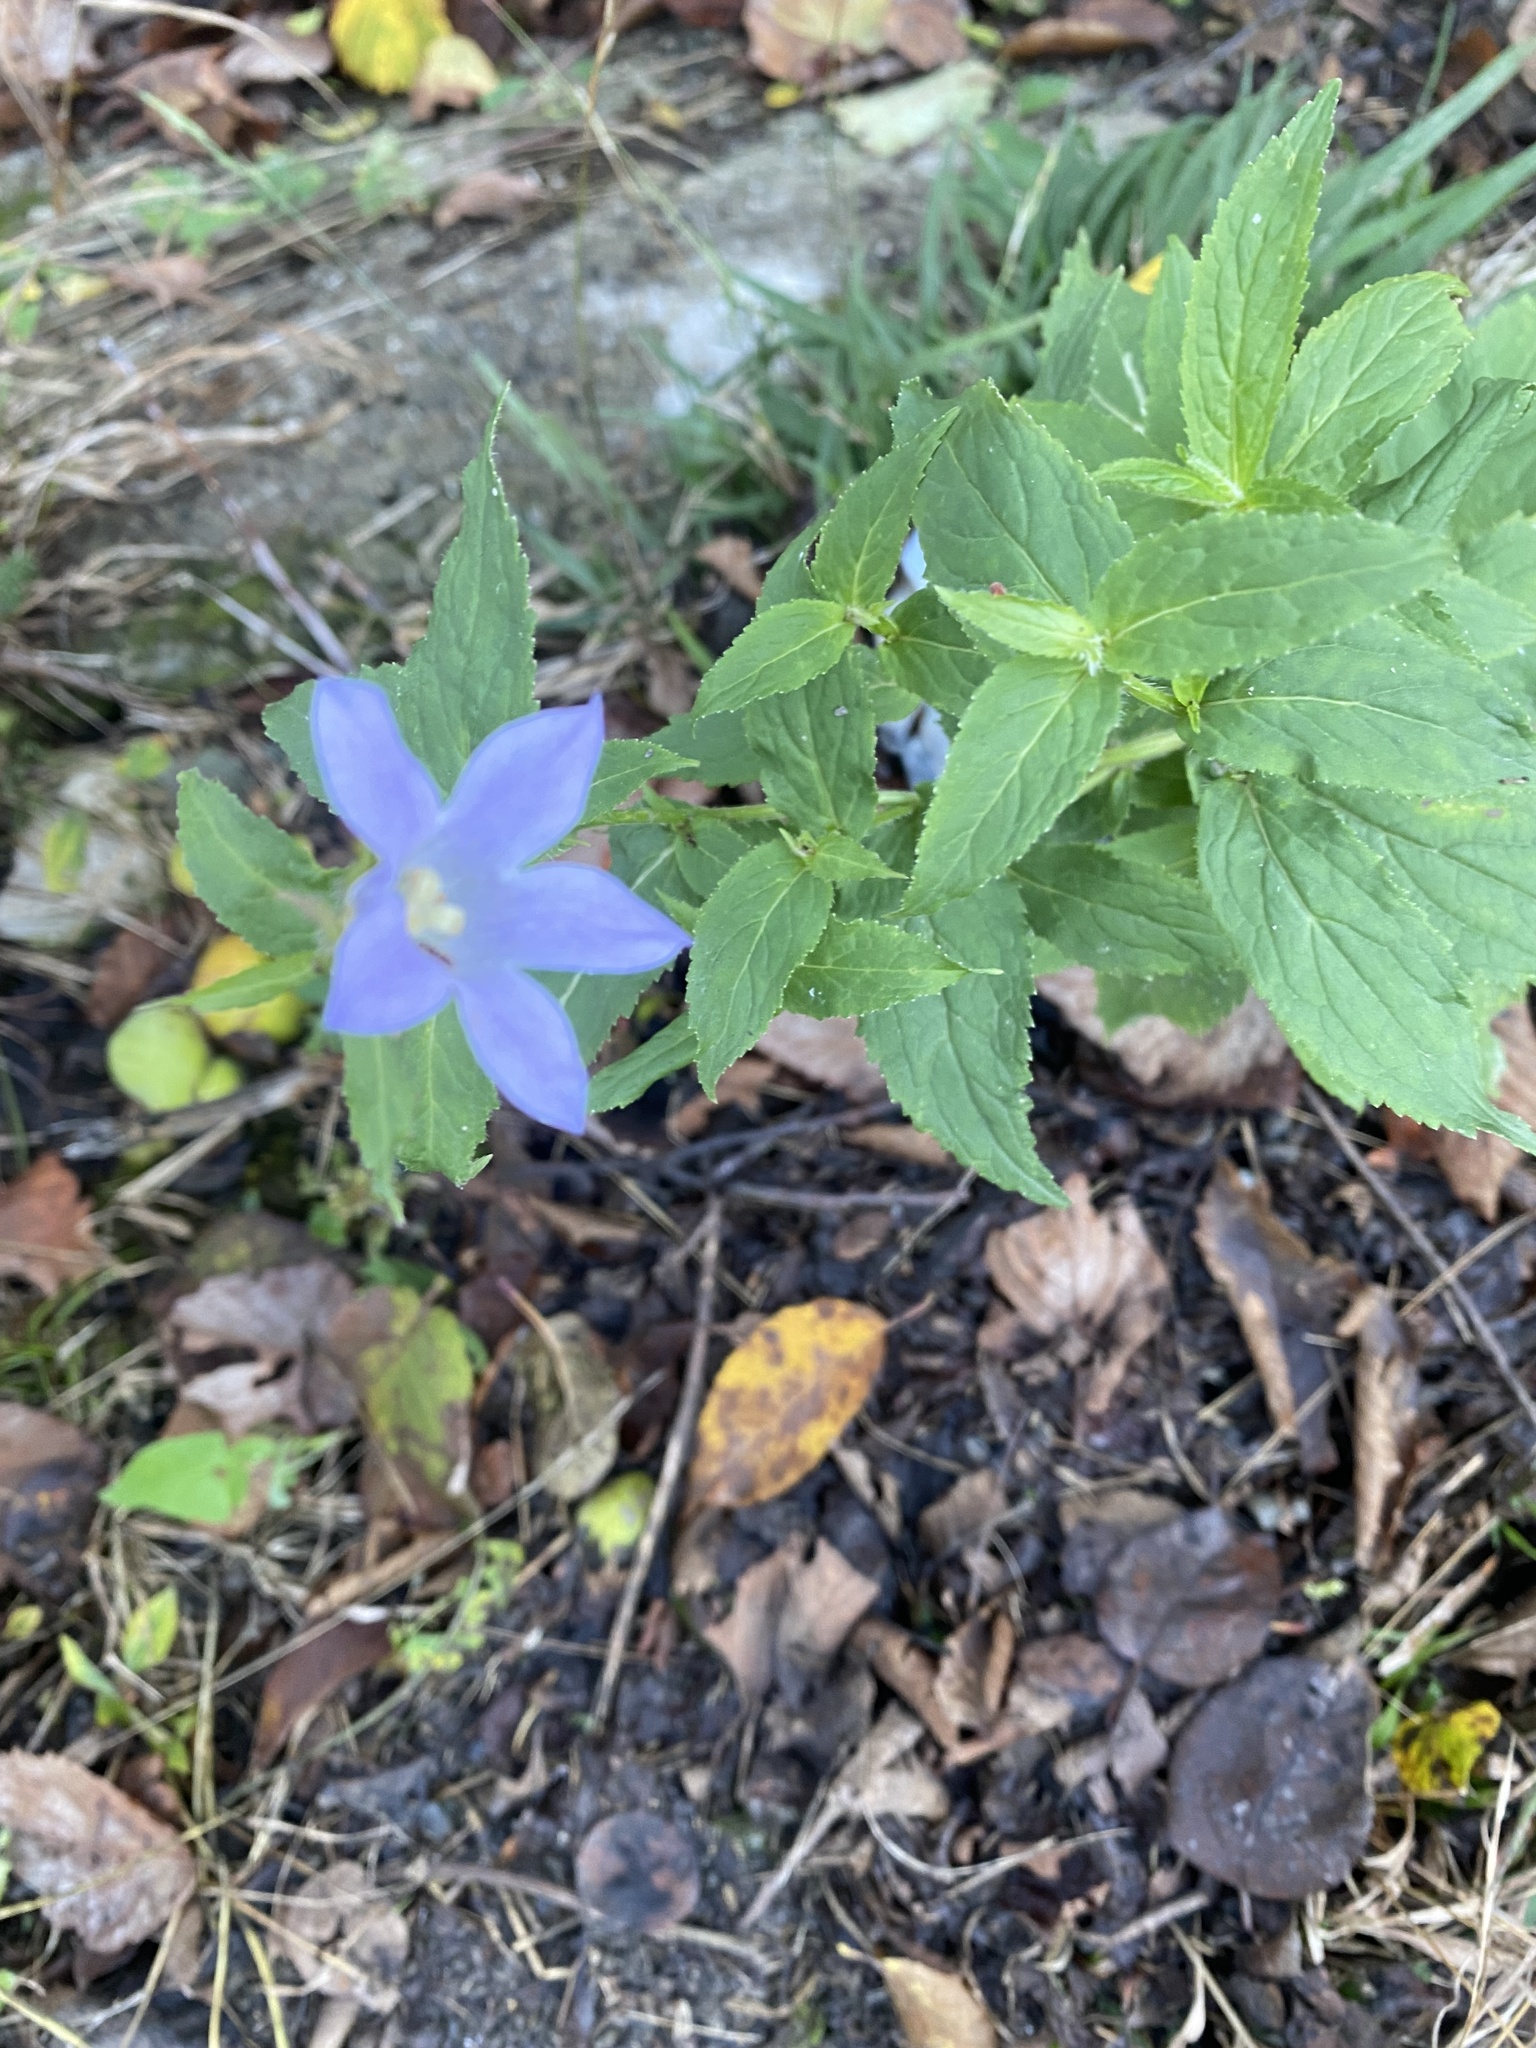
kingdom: Plantae
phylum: Tracheophyta
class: Magnoliopsida
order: Asterales
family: Campanulaceae
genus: Campanula
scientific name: Campanula lactiflora
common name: Milky bellflower
